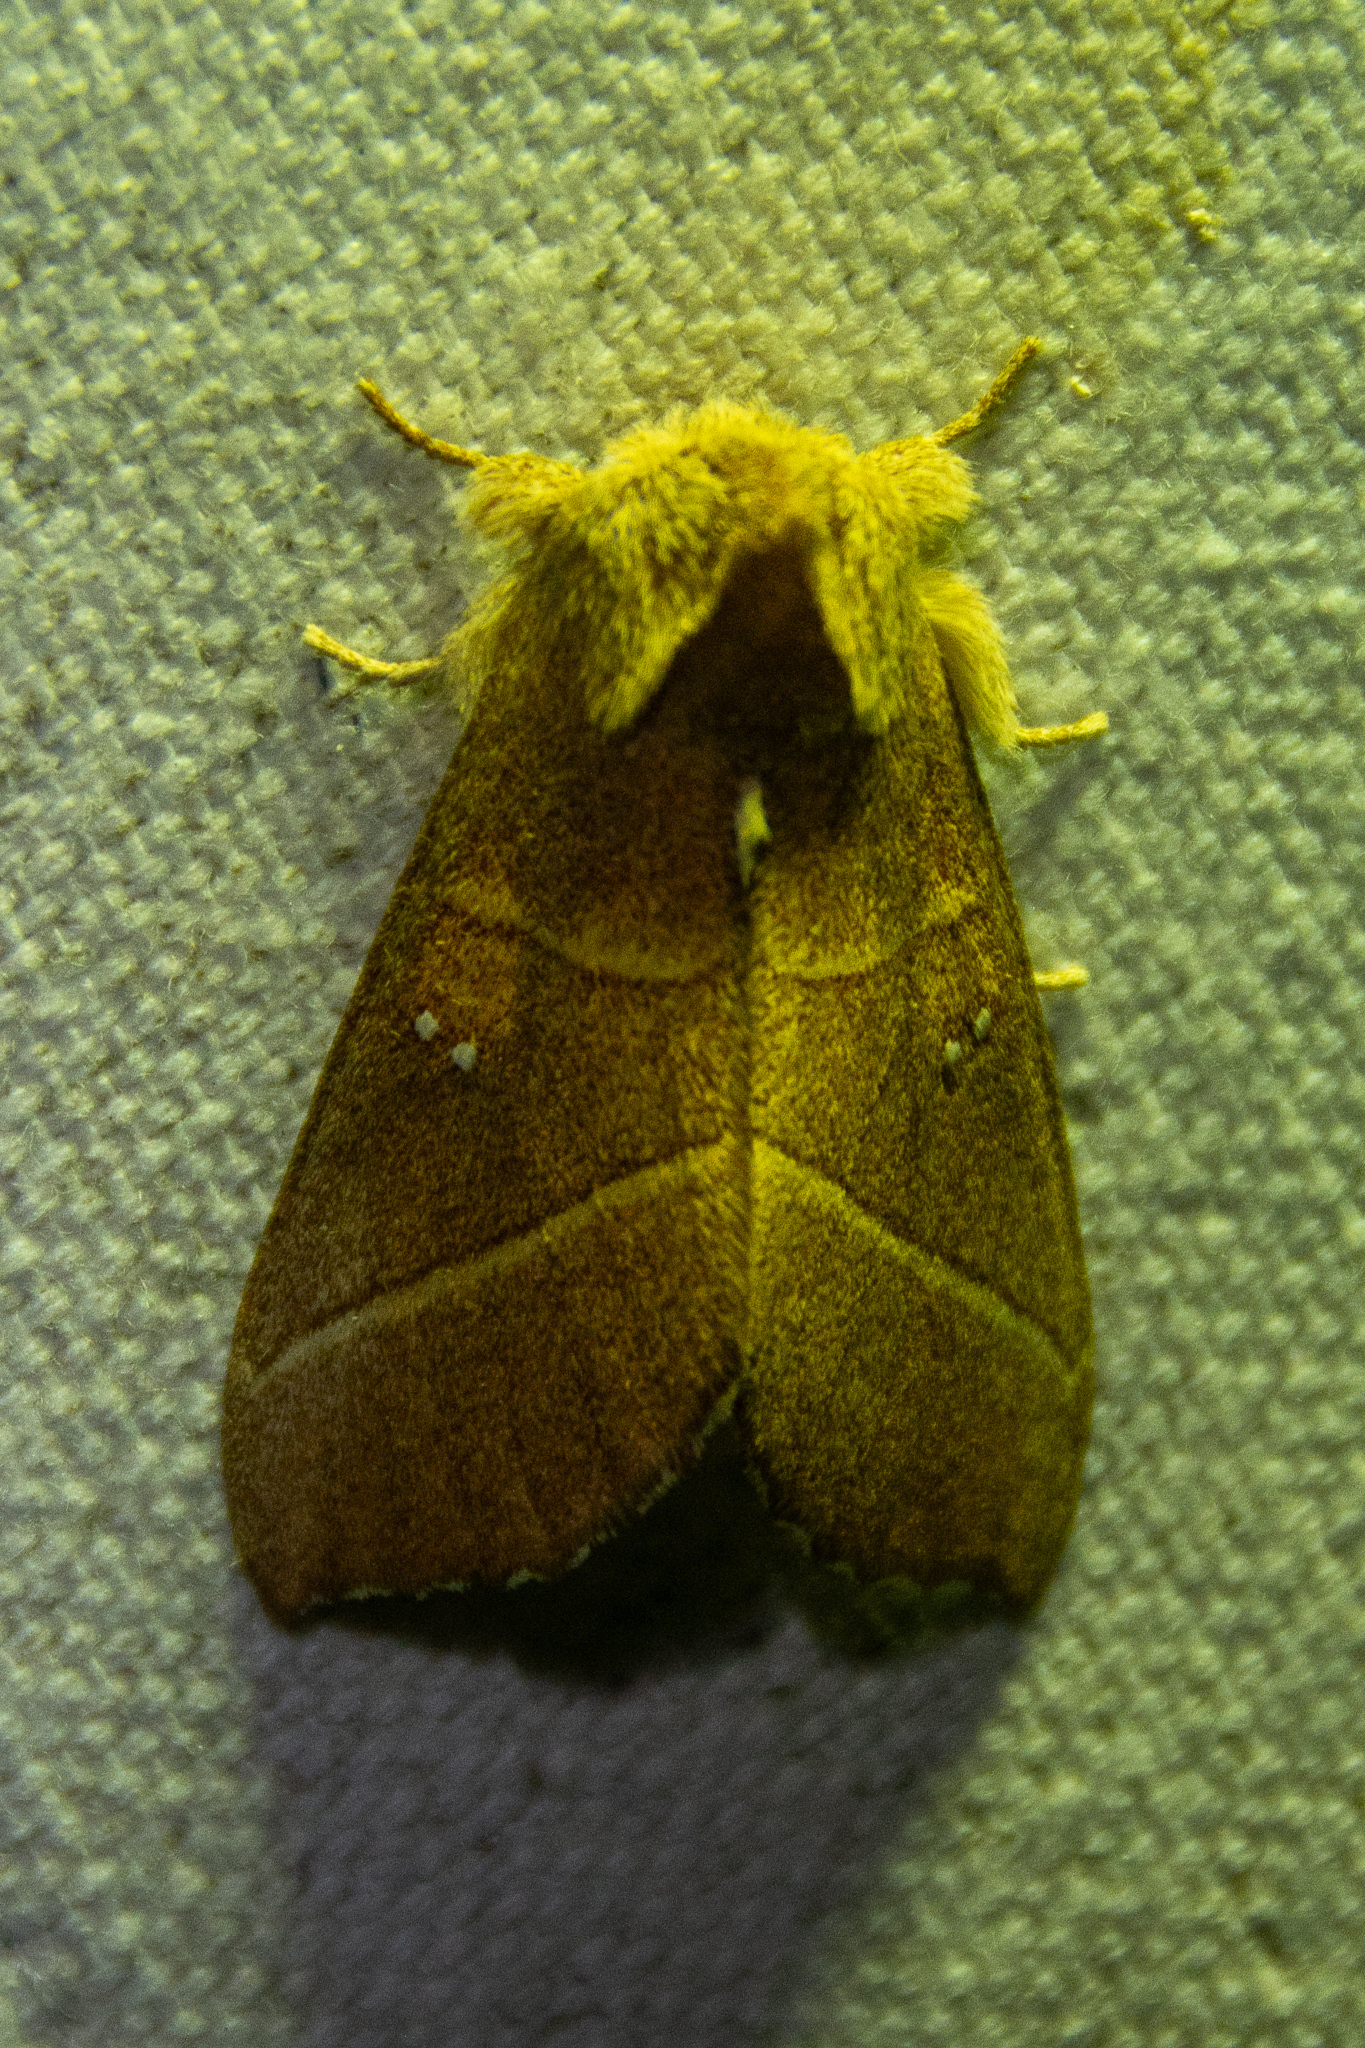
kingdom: Animalia
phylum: Arthropoda
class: Insecta
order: Lepidoptera
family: Notodontidae
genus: Nadata
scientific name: Nadata gibbosa
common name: White-dotted prominent
